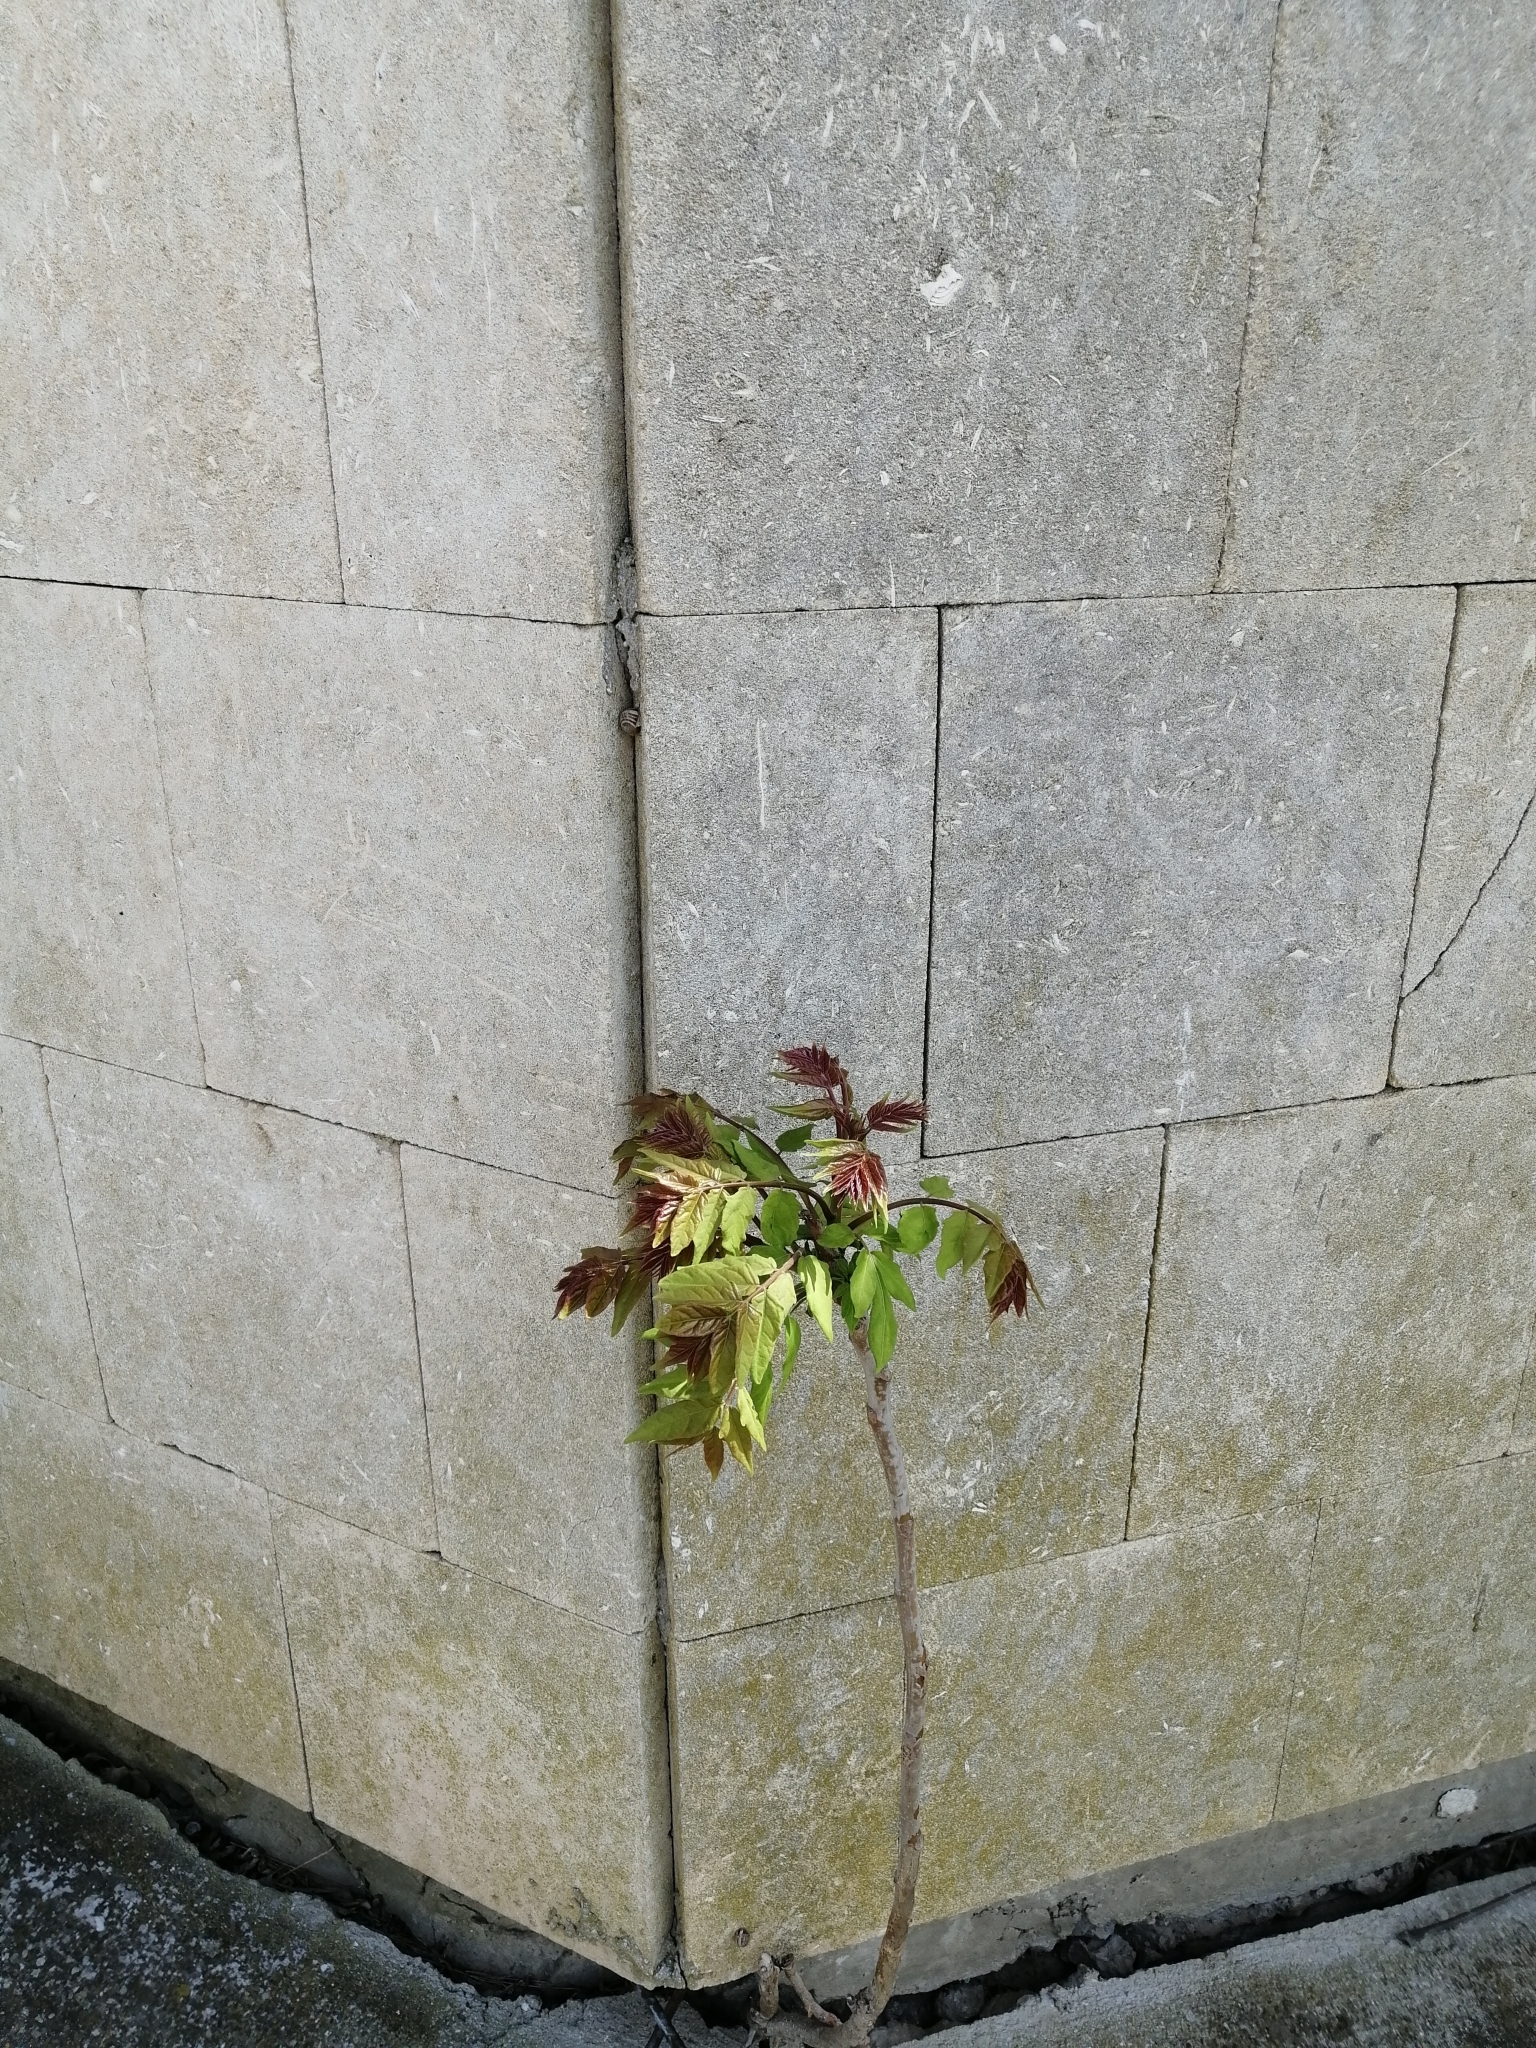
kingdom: Plantae
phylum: Tracheophyta
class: Magnoliopsida
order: Sapindales
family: Simaroubaceae
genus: Ailanthus
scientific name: Ailanthus altissima
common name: Tree-of-heaven
